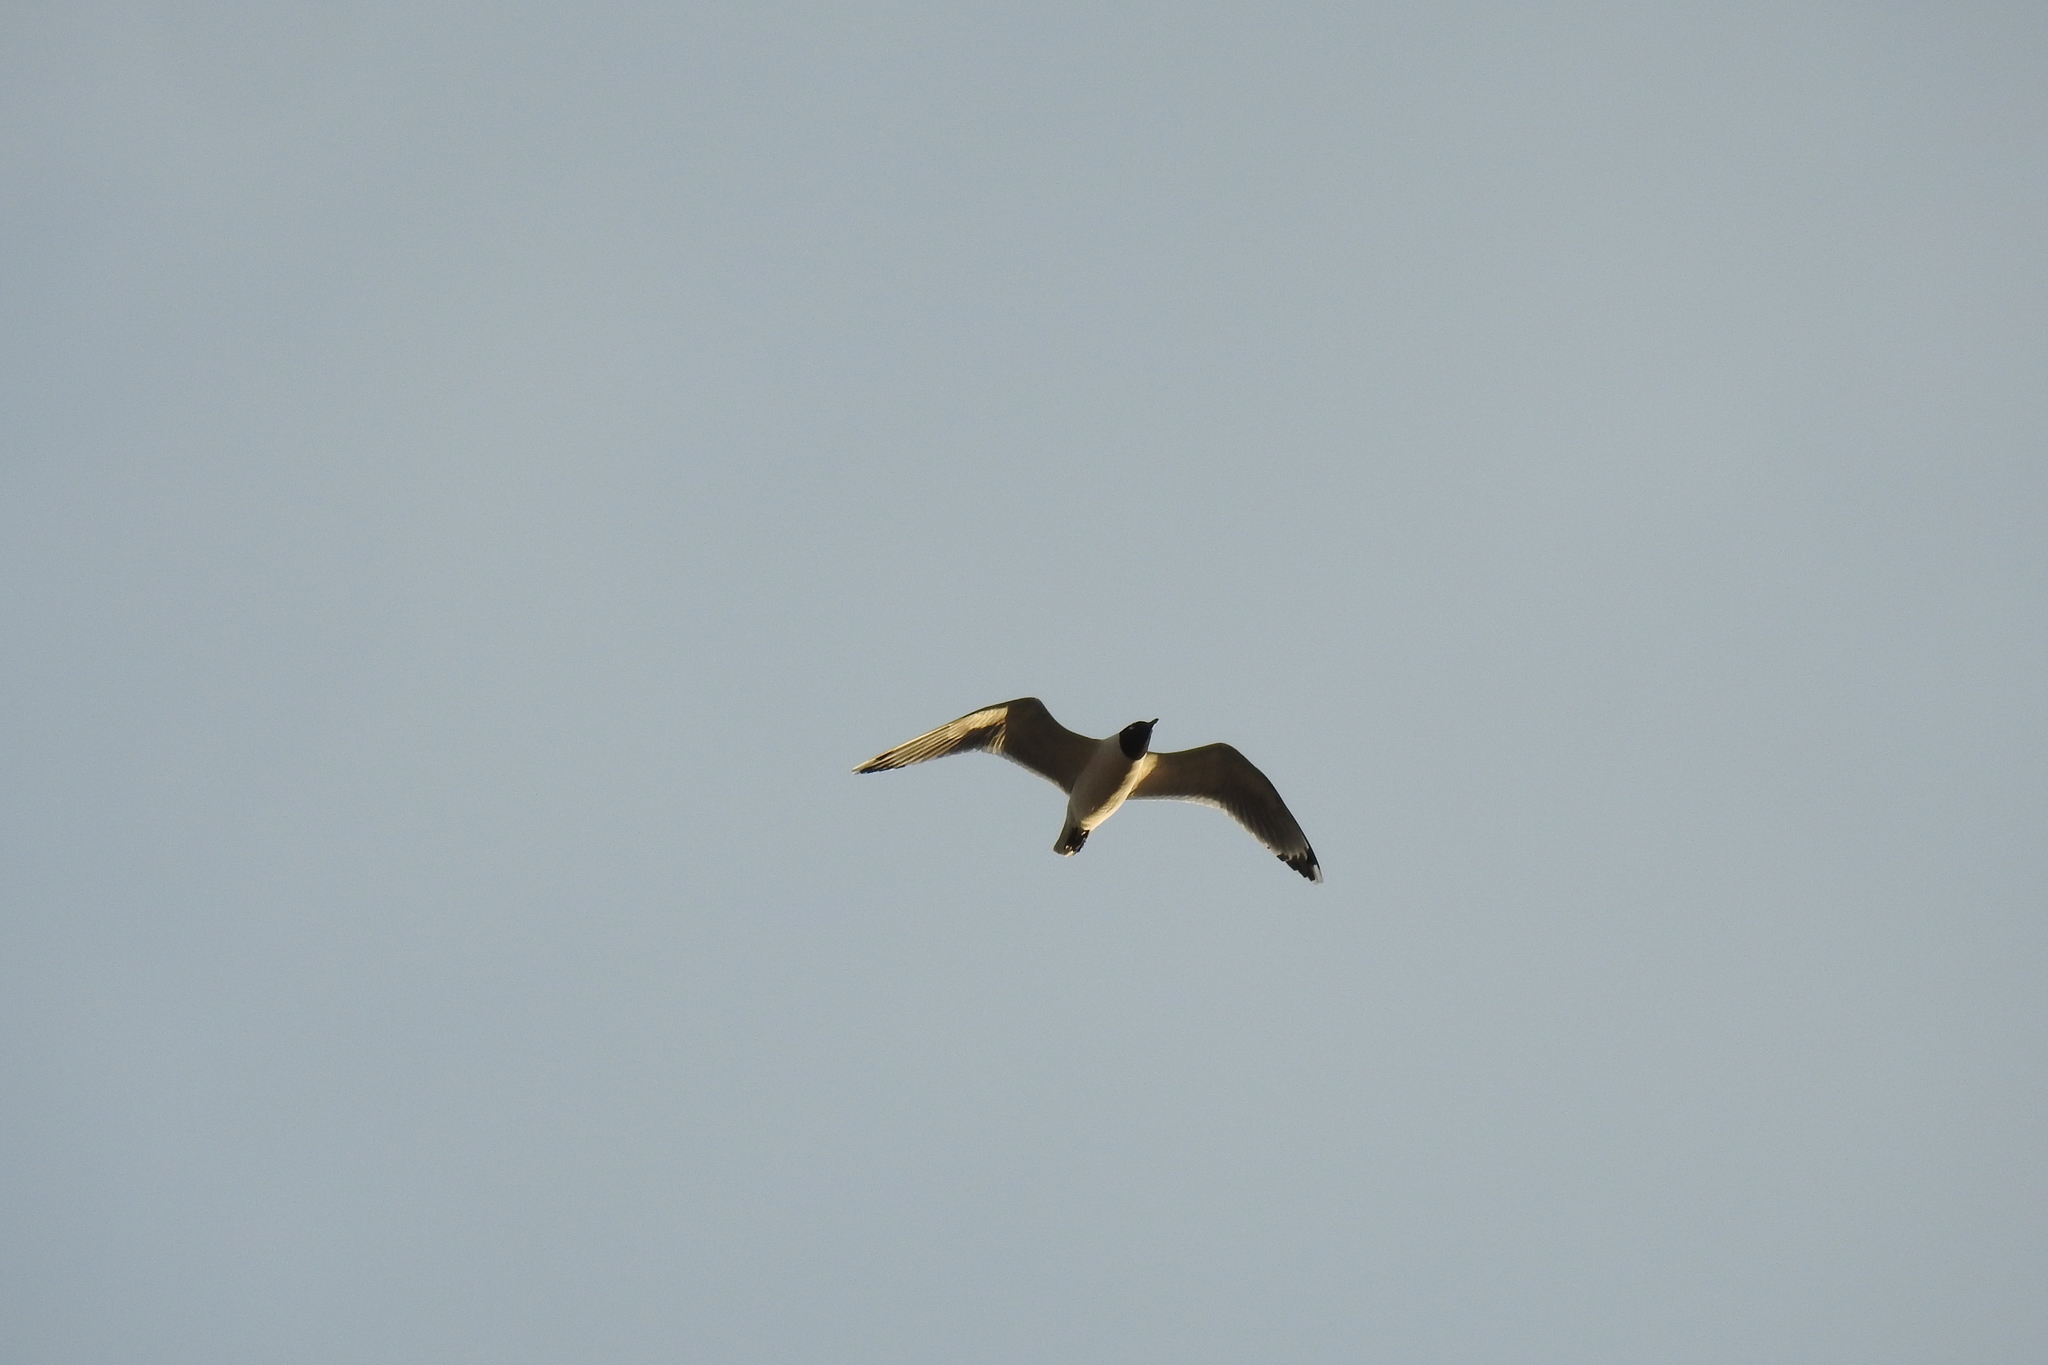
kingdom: Animalia
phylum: Chordata
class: Aves
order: Charadriiformes
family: Laridae
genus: Leucophaeus
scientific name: Leucophaeus pipixcan
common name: Franklin's gull
